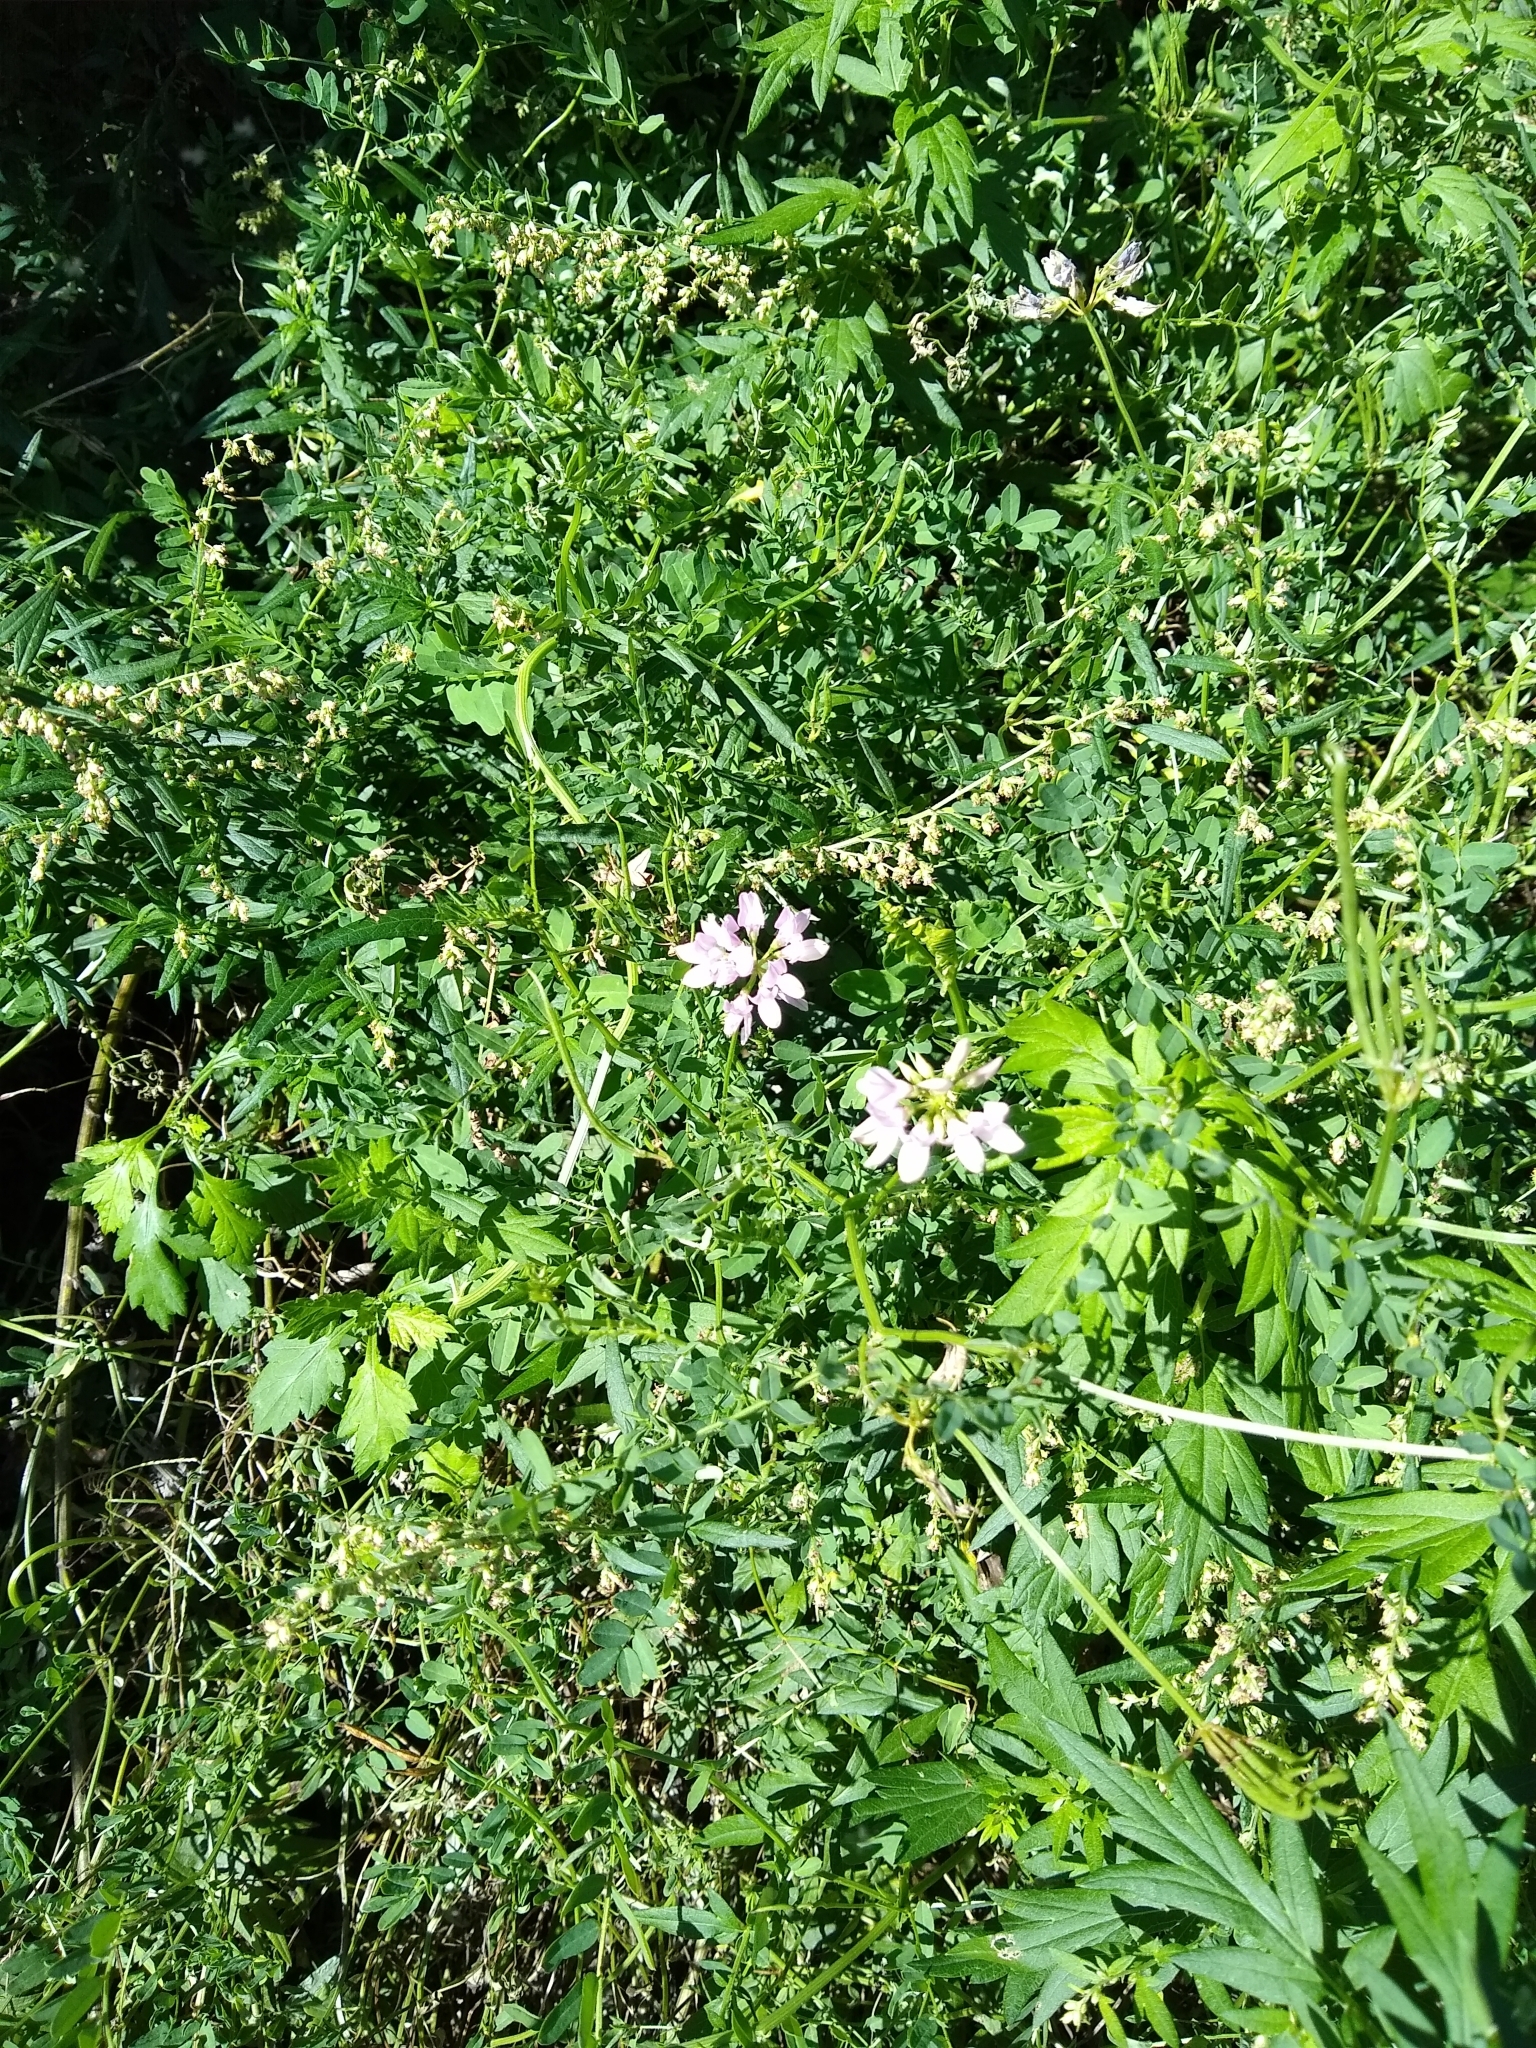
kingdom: Plantae
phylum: Tracheophyta
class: Magnoliopsida
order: Fabales
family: Fabaceae
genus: Coronilla
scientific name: Coronilla varia
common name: Crownvetch
